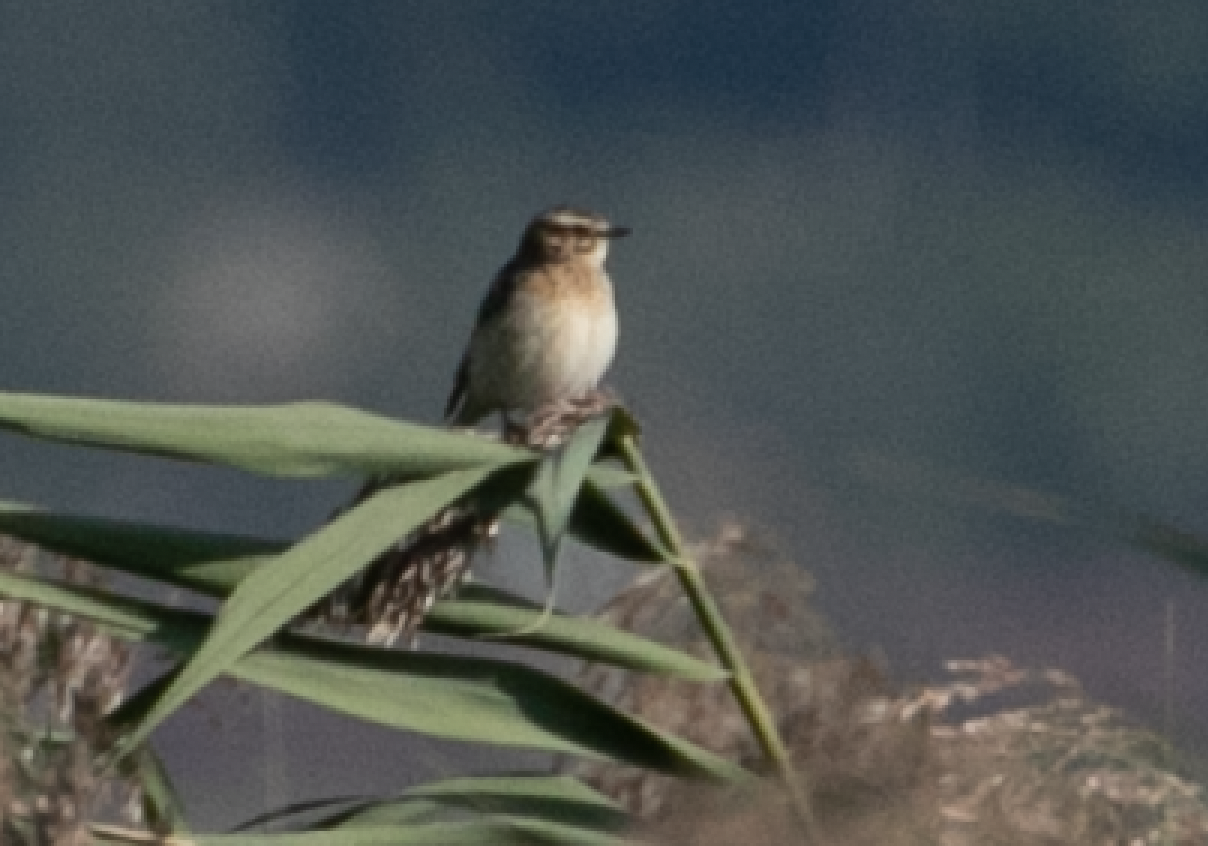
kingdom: Animalia
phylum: Chordata
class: Aves
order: Passeriformes
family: Muscicapidae
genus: Saxicola
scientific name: Saxicola rubetra
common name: Whinchat
